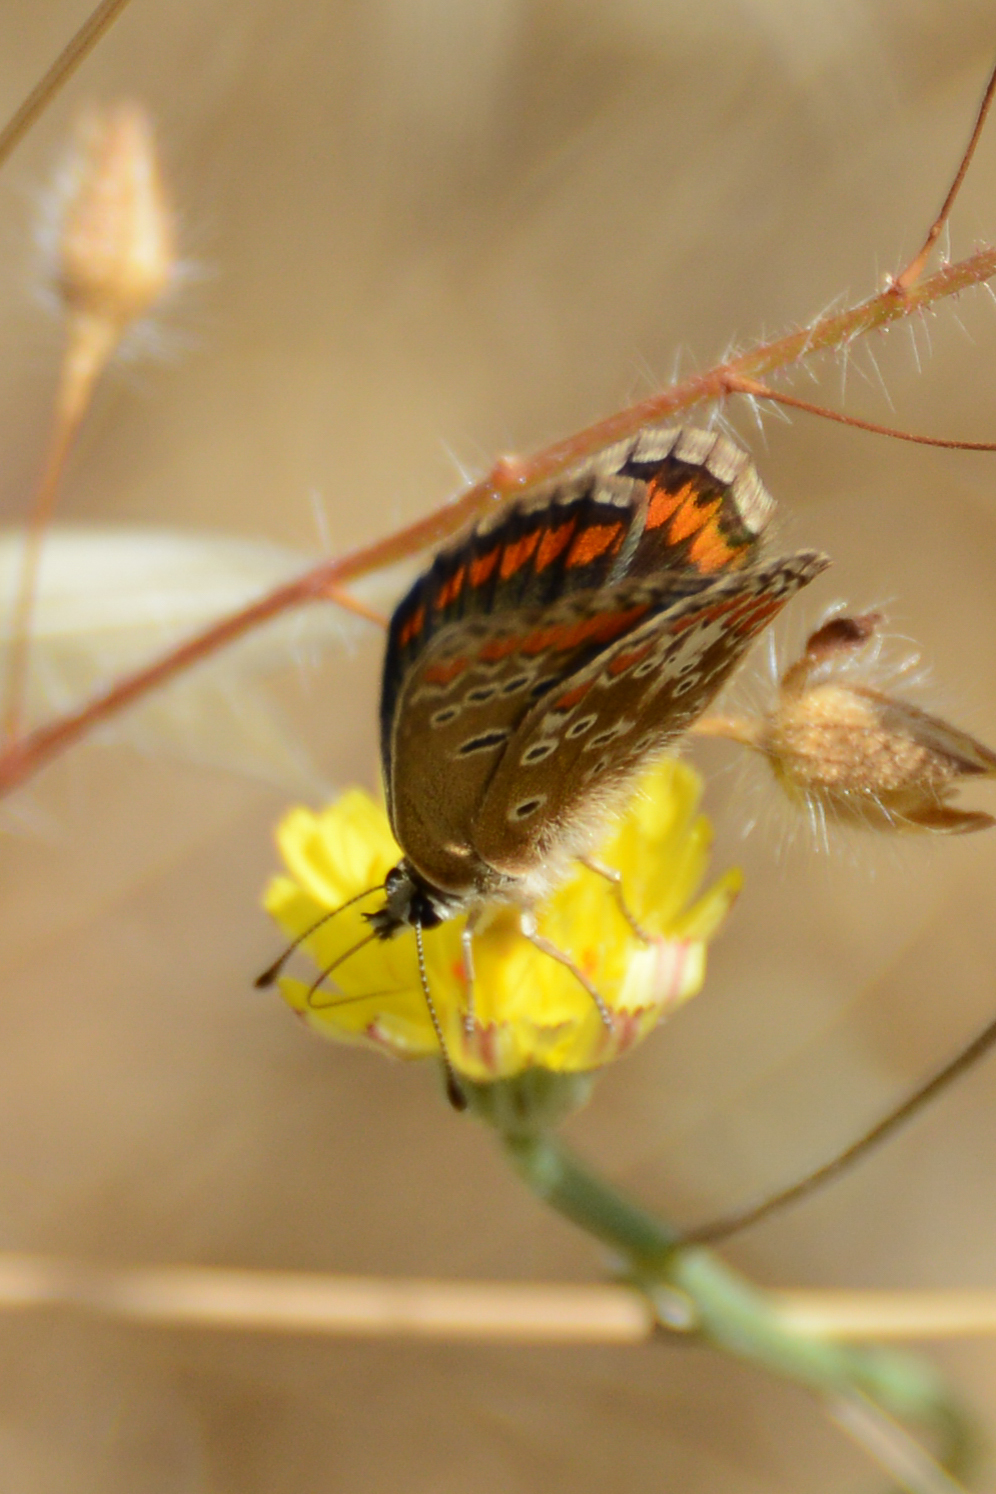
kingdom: Animalia
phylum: Arthropoda
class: Insecta
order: Lepidoptera
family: Lycaenidae
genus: Aricia
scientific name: Aricia agestis
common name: Brown argus
